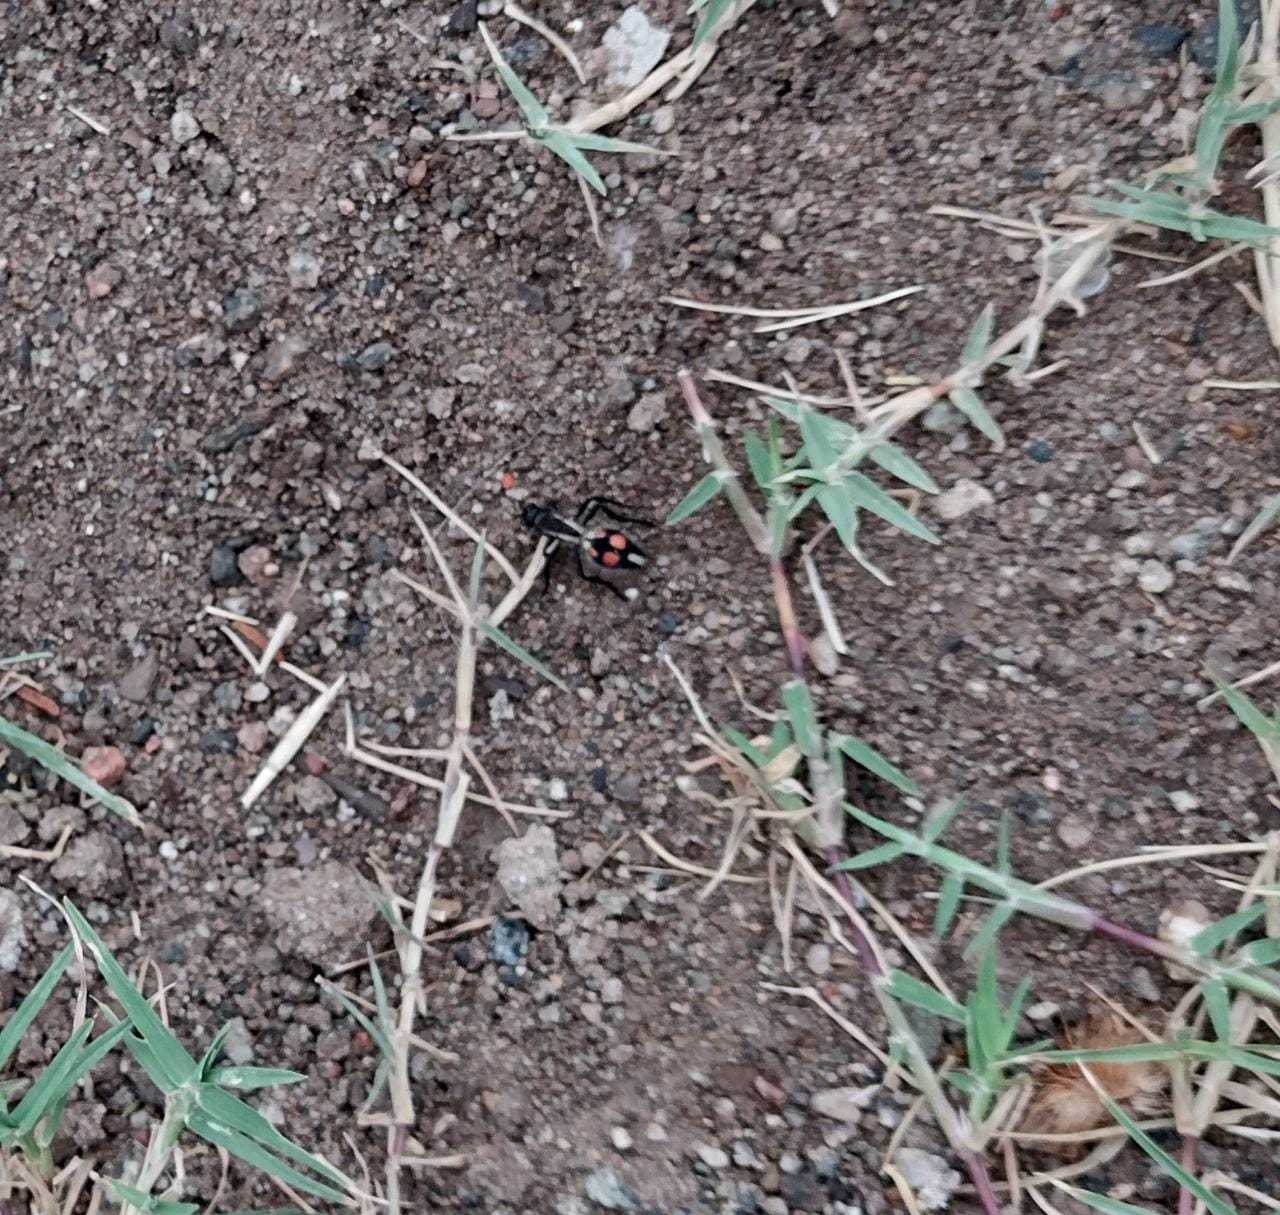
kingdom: Animalia
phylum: Arthropoda
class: Insecta
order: Hymenoptera
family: Mutillidae
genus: Traumatomutilla
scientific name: Traumatomutilla
